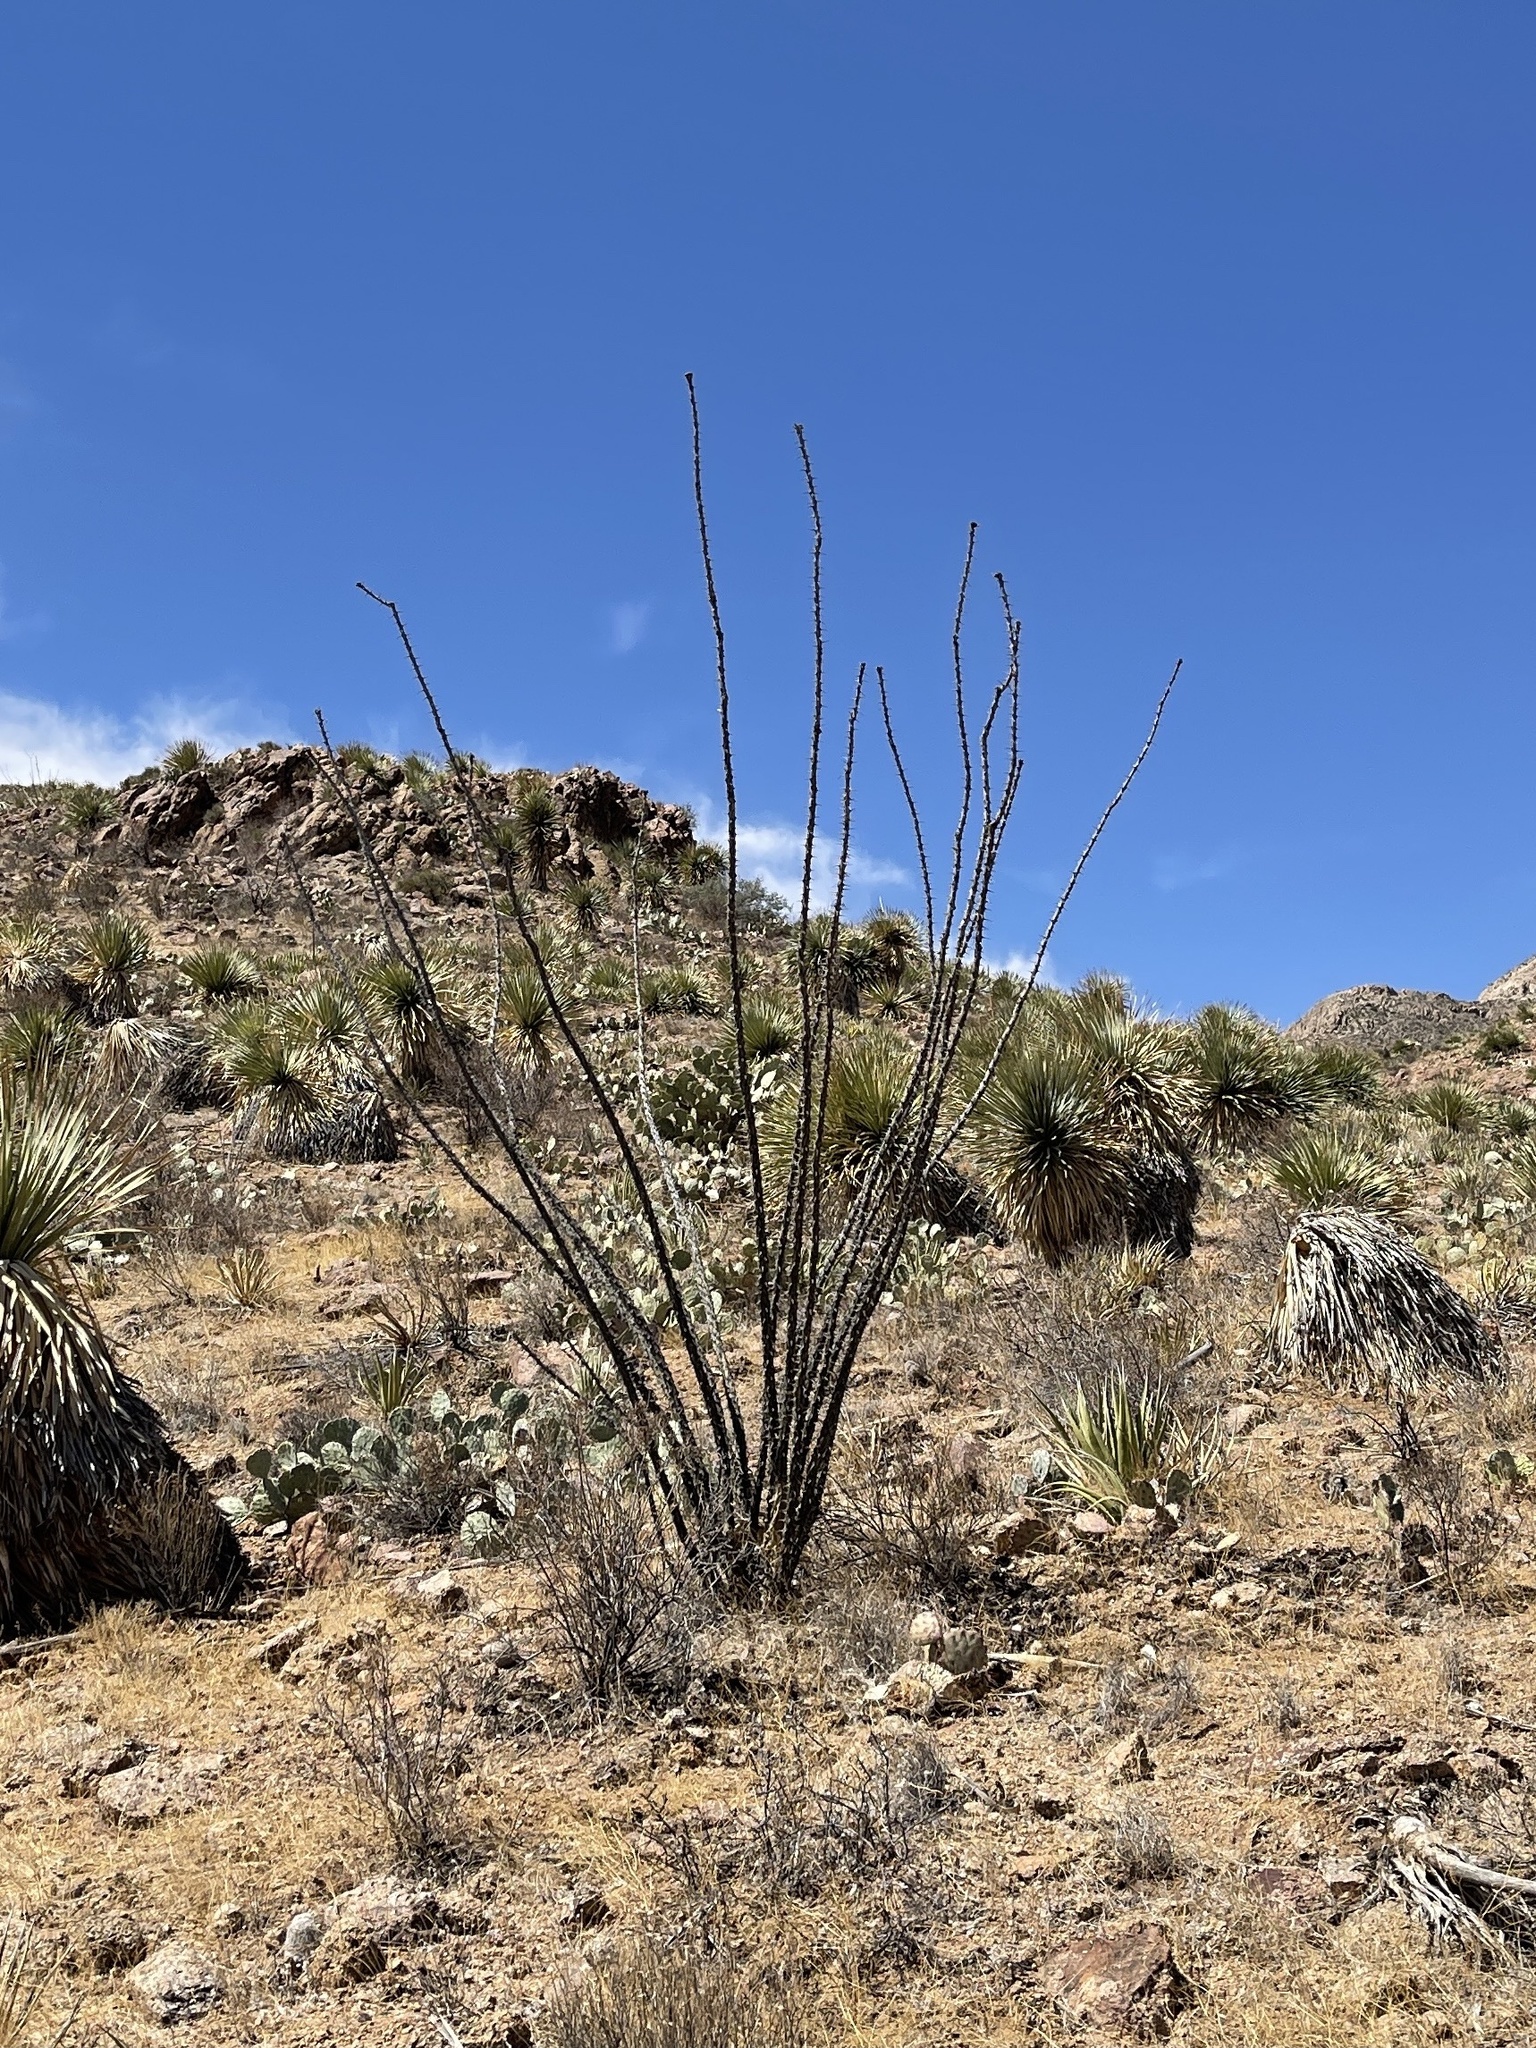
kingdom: Plantae
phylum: Tracheophyta
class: Magnoliopsida
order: Ericales
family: Fouquieriaceae
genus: Fouquieria
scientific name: Fouquieria splendens
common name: Vine-cactus
